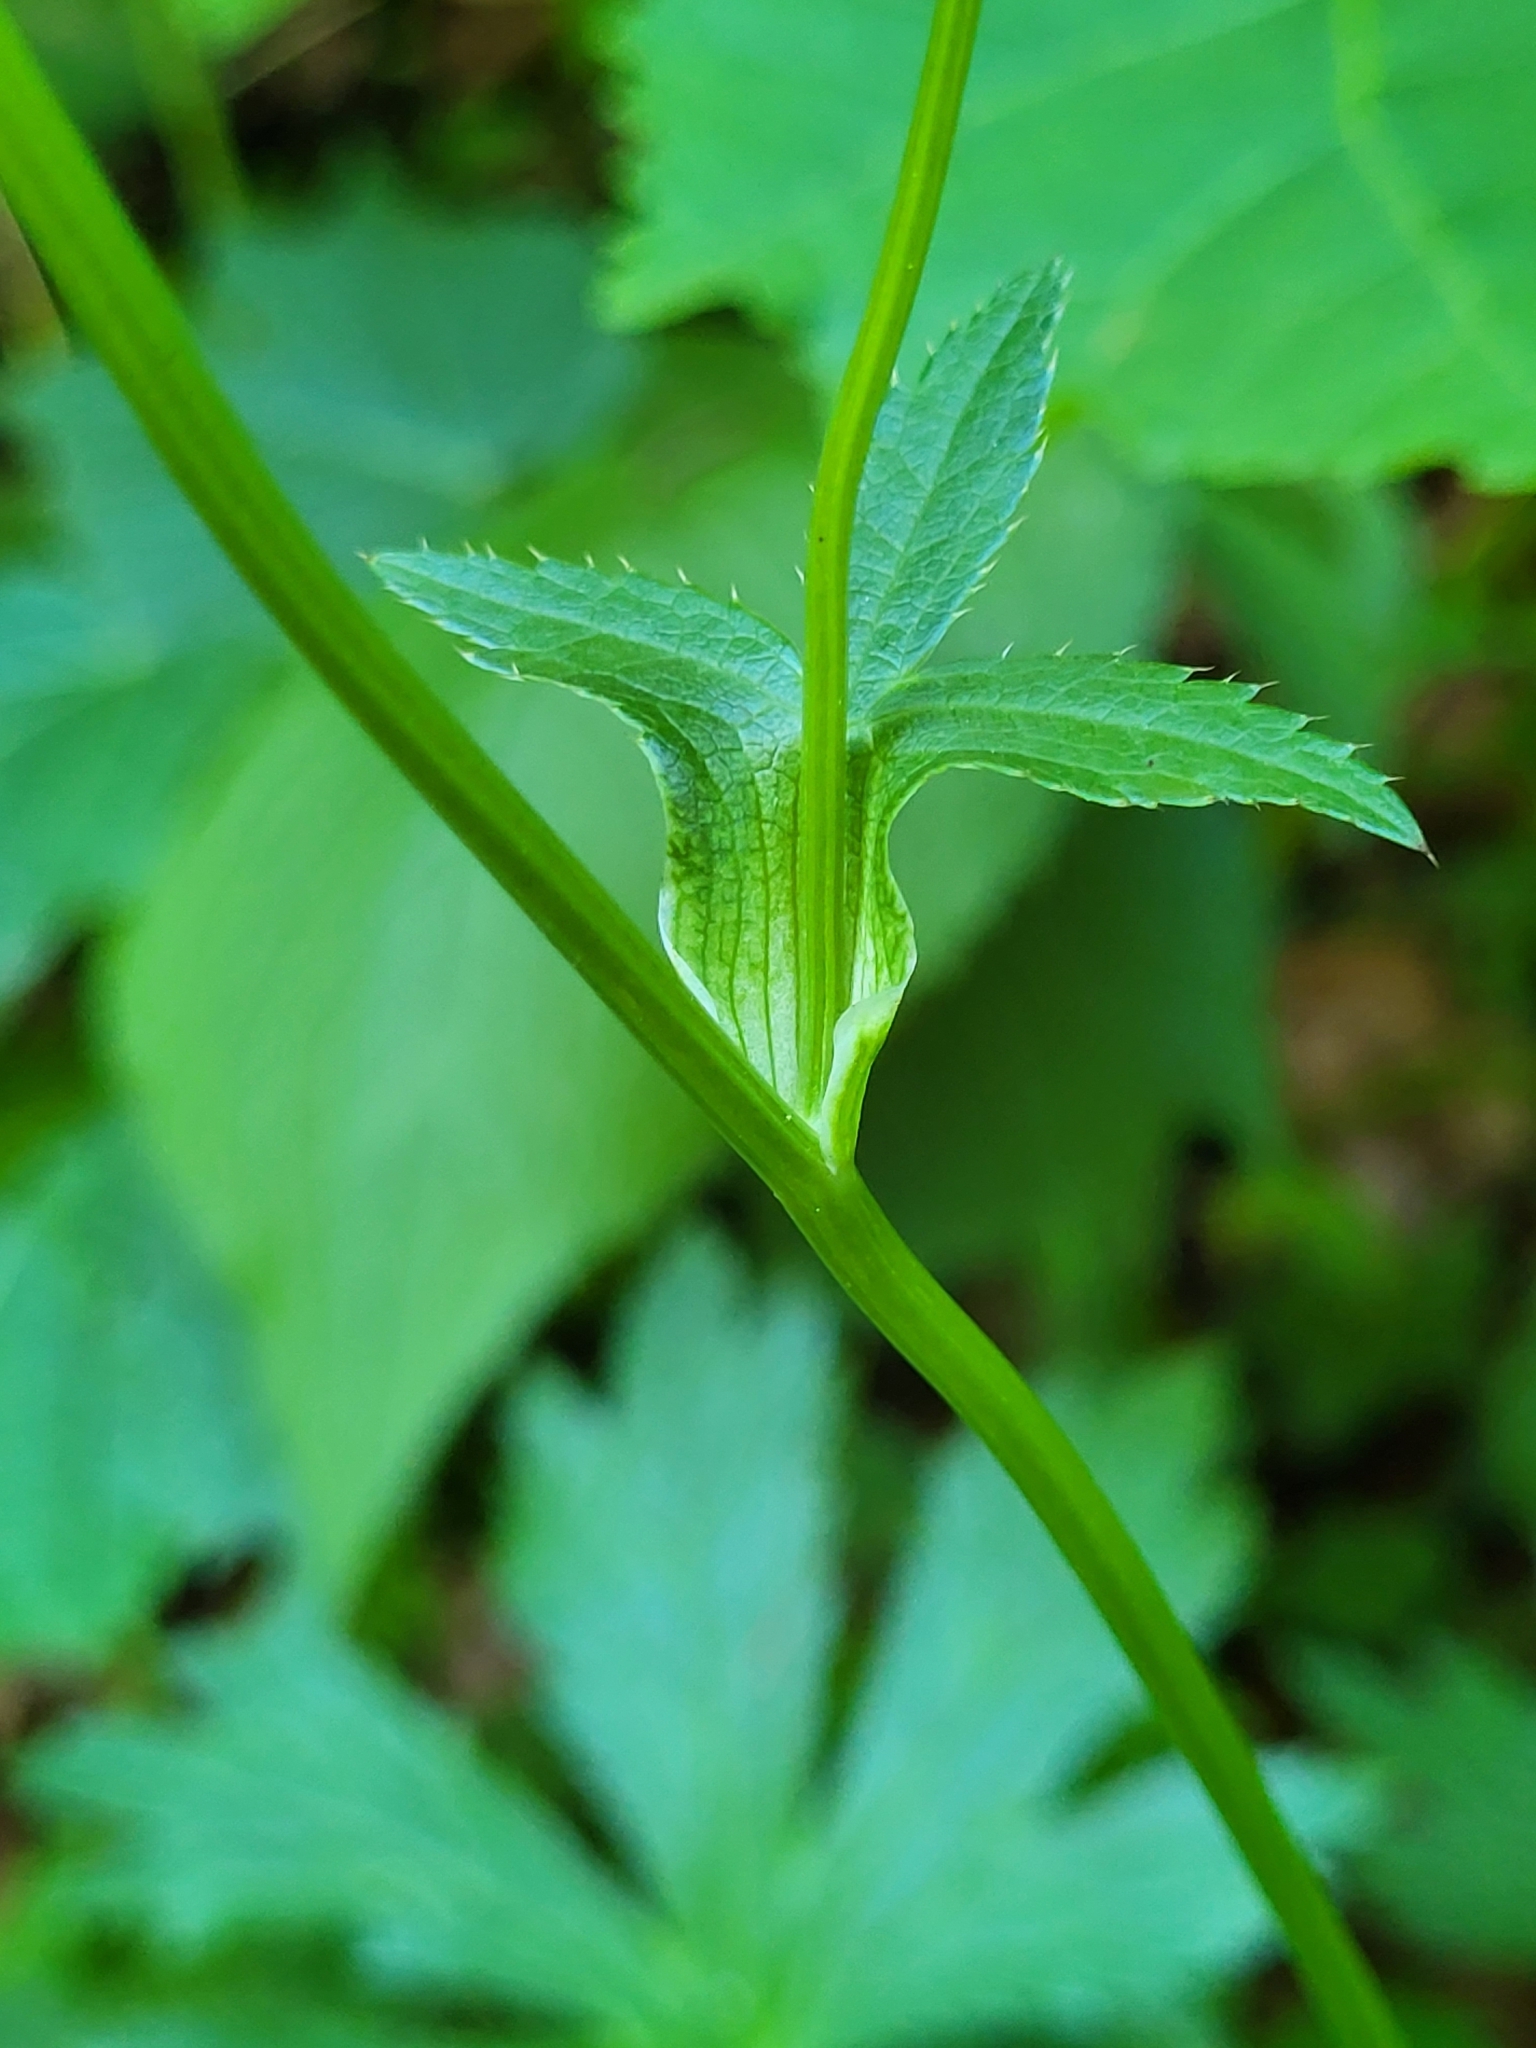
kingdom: Plantae
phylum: Tracheophyta
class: Magnoliopsida
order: Apiales
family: Apiaceae
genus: Astrantia
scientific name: Astrantia major
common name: Greater masterwort
